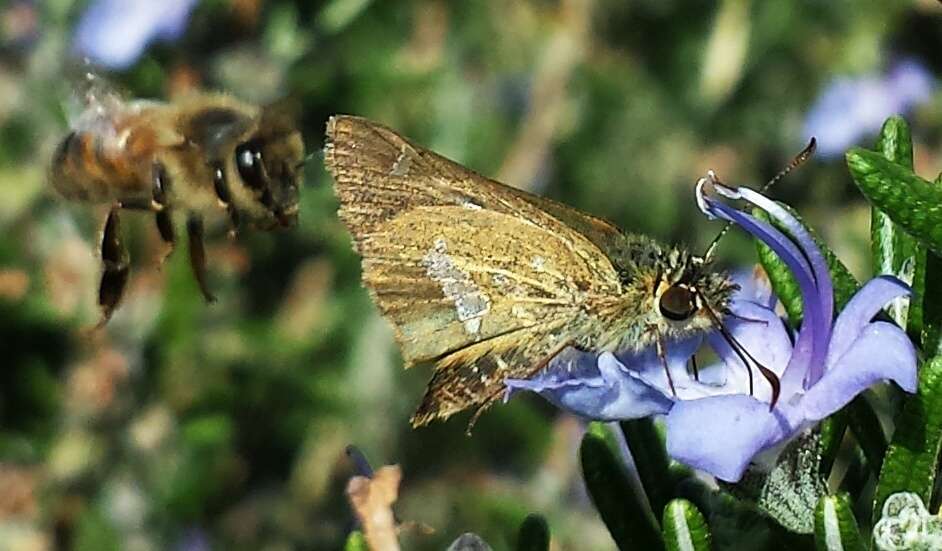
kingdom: Animalia
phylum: Arthropoda
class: Insecta
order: Lepidoptera
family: Hesperiidae
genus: Dispar
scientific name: Dispar compacta
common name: Barred skipper
